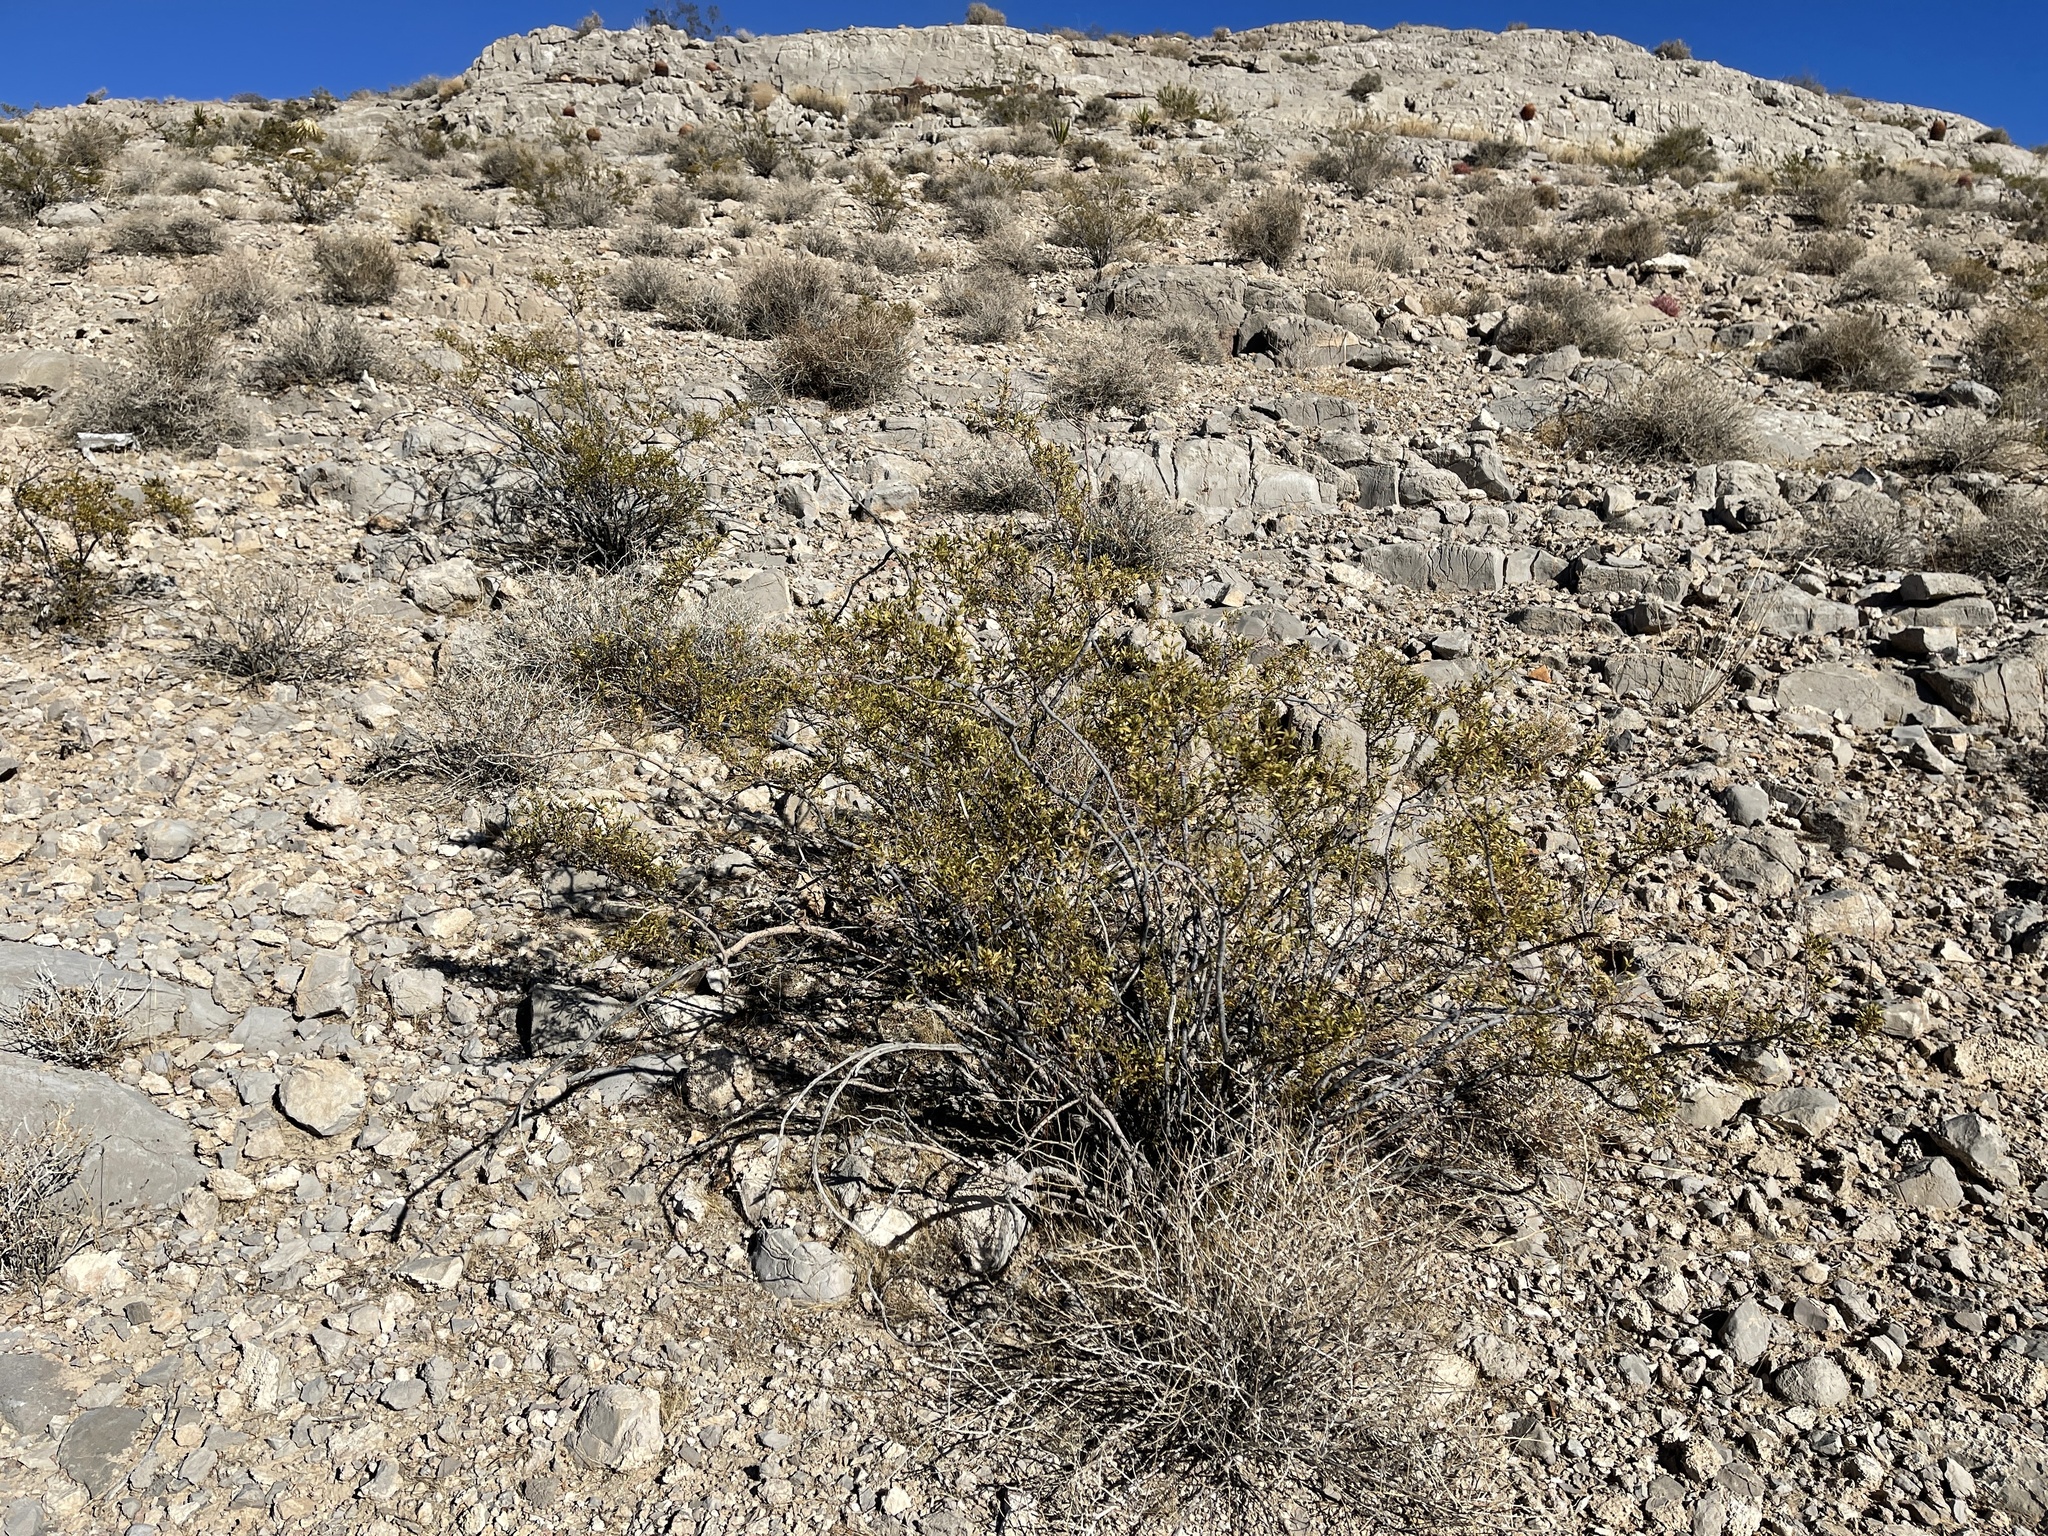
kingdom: Plantae
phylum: Tracheophyta
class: Magnoliopsida
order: Zygophyllales
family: Zygophyllaceae
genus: Larrea
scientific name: Larrea tridentata
